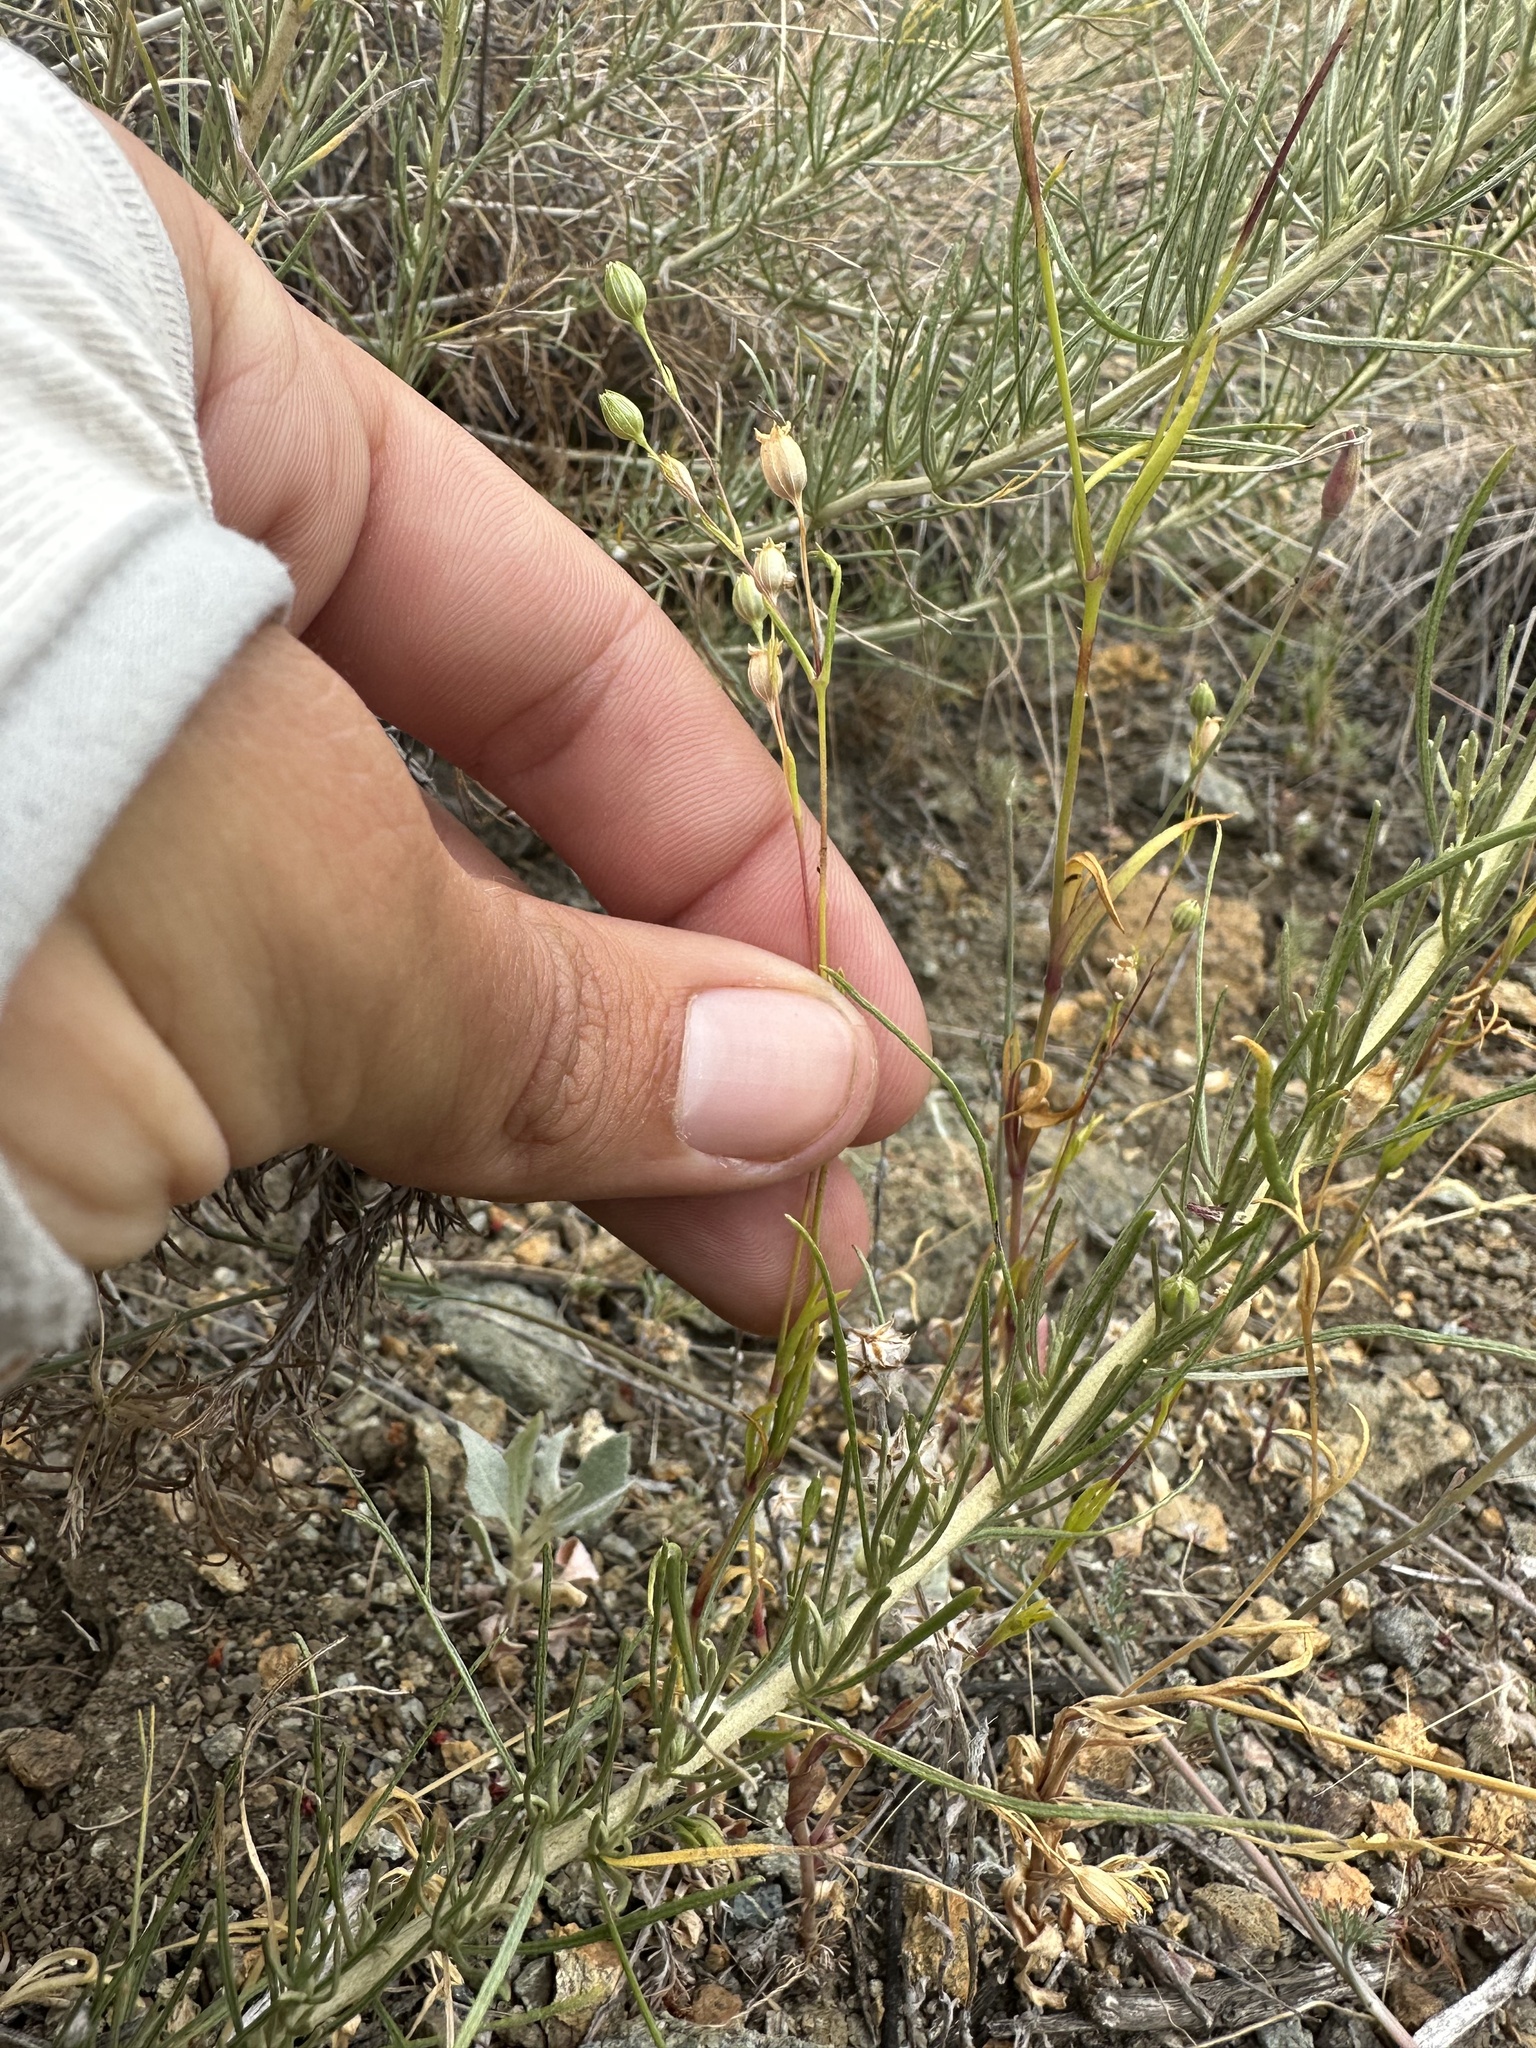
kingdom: Plantae
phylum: Tracheophyta
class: Magnoliopsida
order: Caryophyllales
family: Caryophyllaceae
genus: Silene
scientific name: Silene antirrhina
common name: Sleepy catchfly
